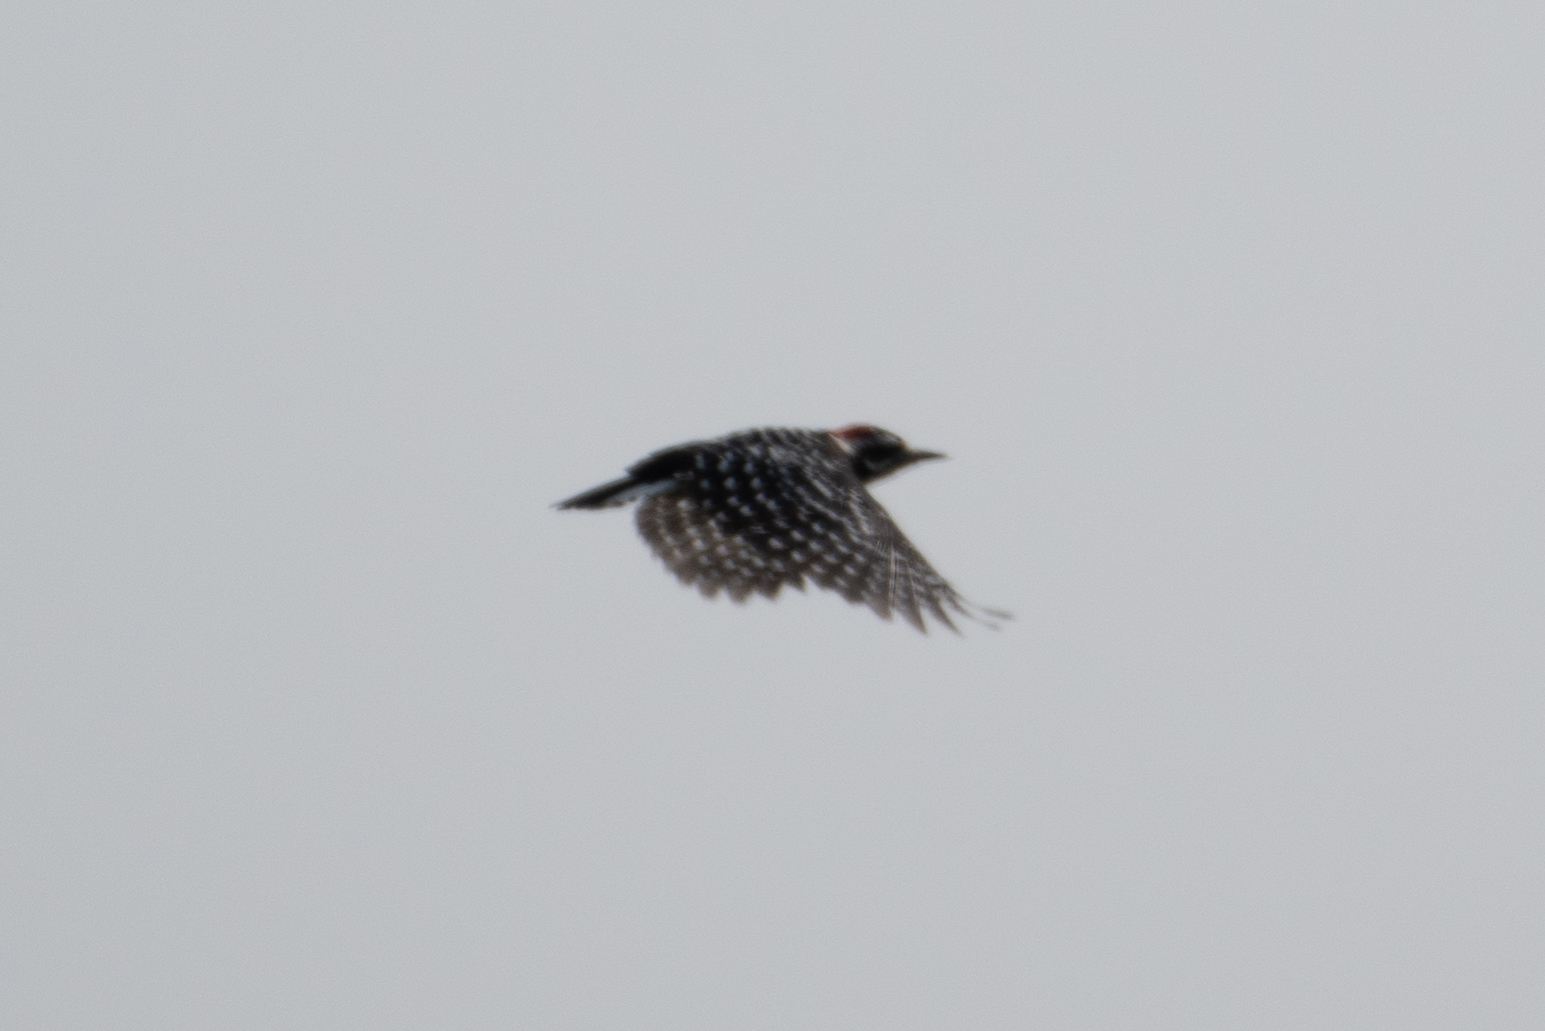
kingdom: Animalia
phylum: Chordata
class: Aves
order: Piciformes
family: Picidae
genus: Dryobates
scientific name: Dryobates nuttallii
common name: Nuttall's woodpecker
